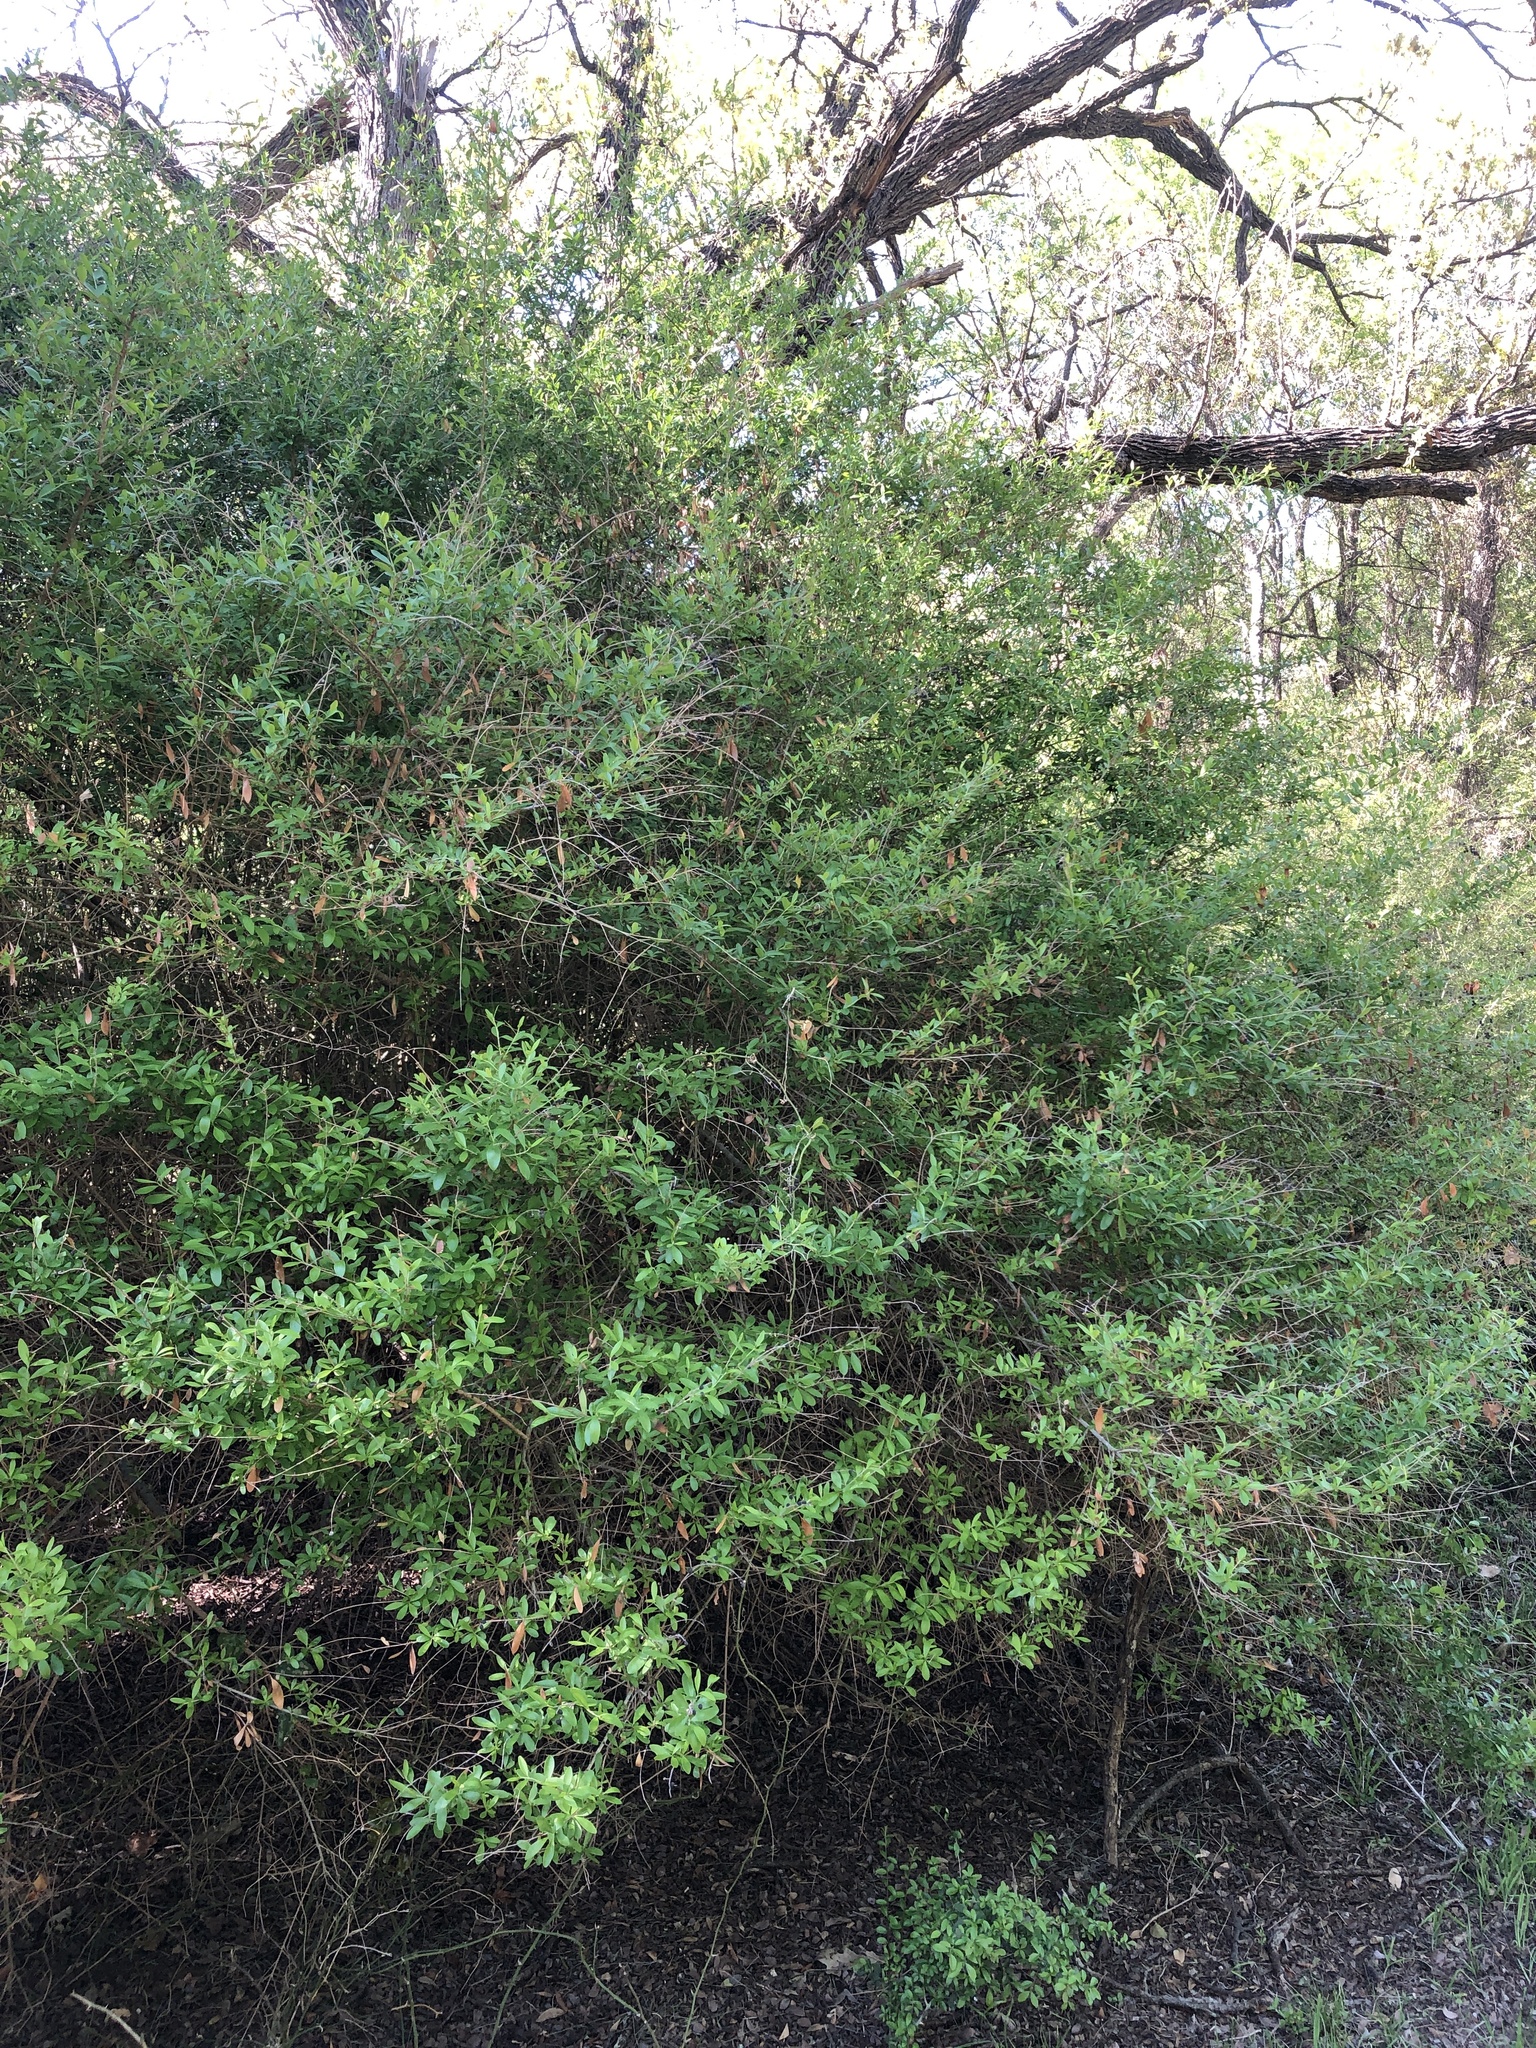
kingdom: Plantae
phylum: Tracheophyta
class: Magnoliopsida
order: Lamiales
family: Oleaceae
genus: Ligustrum
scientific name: Ligustrum quihoui
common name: Waxyleaf privet
